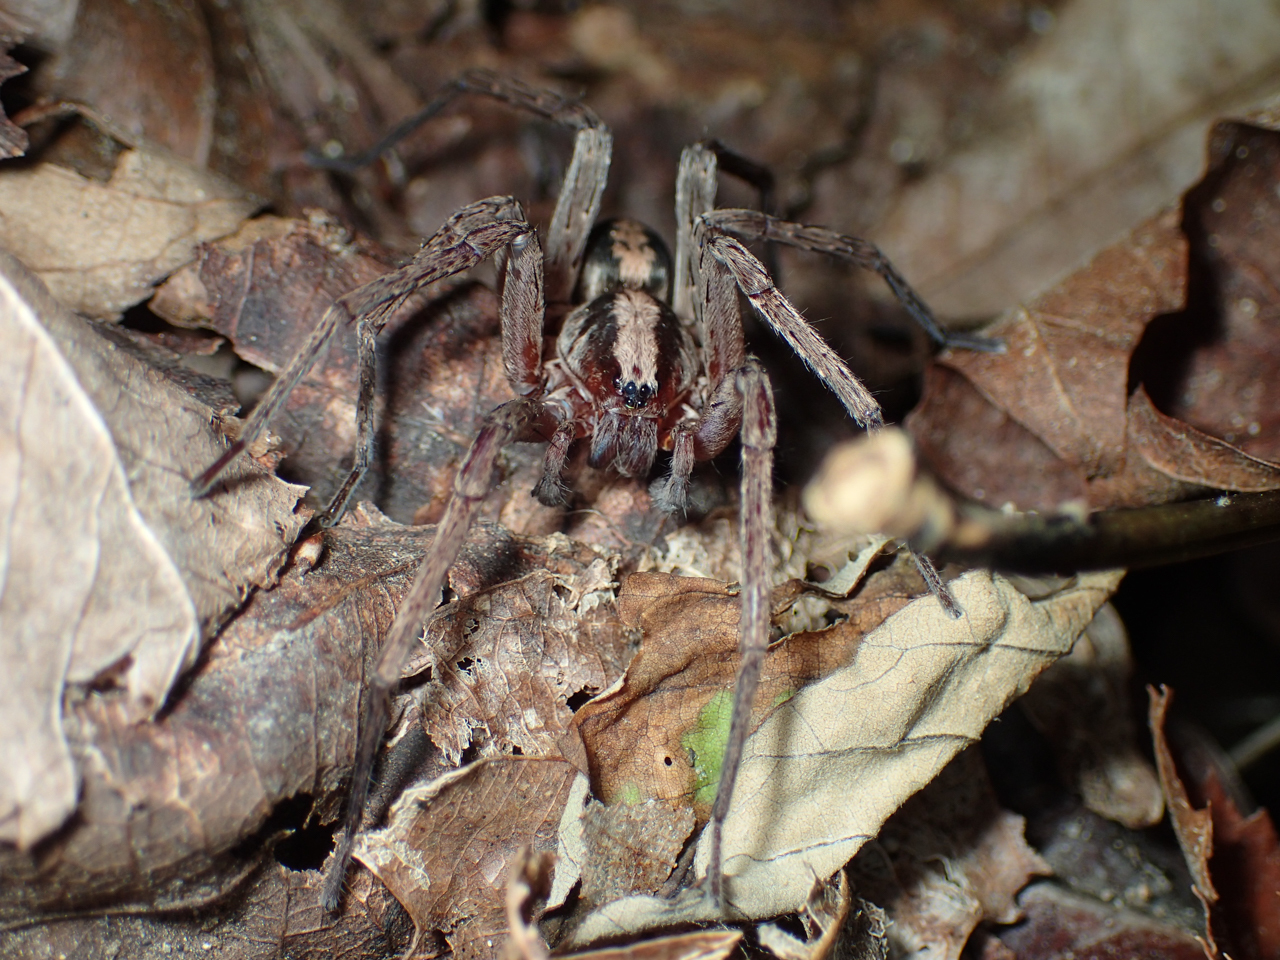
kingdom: Animalia
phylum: Arthropoda
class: Arachnida
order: Araneae
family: Ctenidae
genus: Ctenus
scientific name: Ctenus hibernalis
